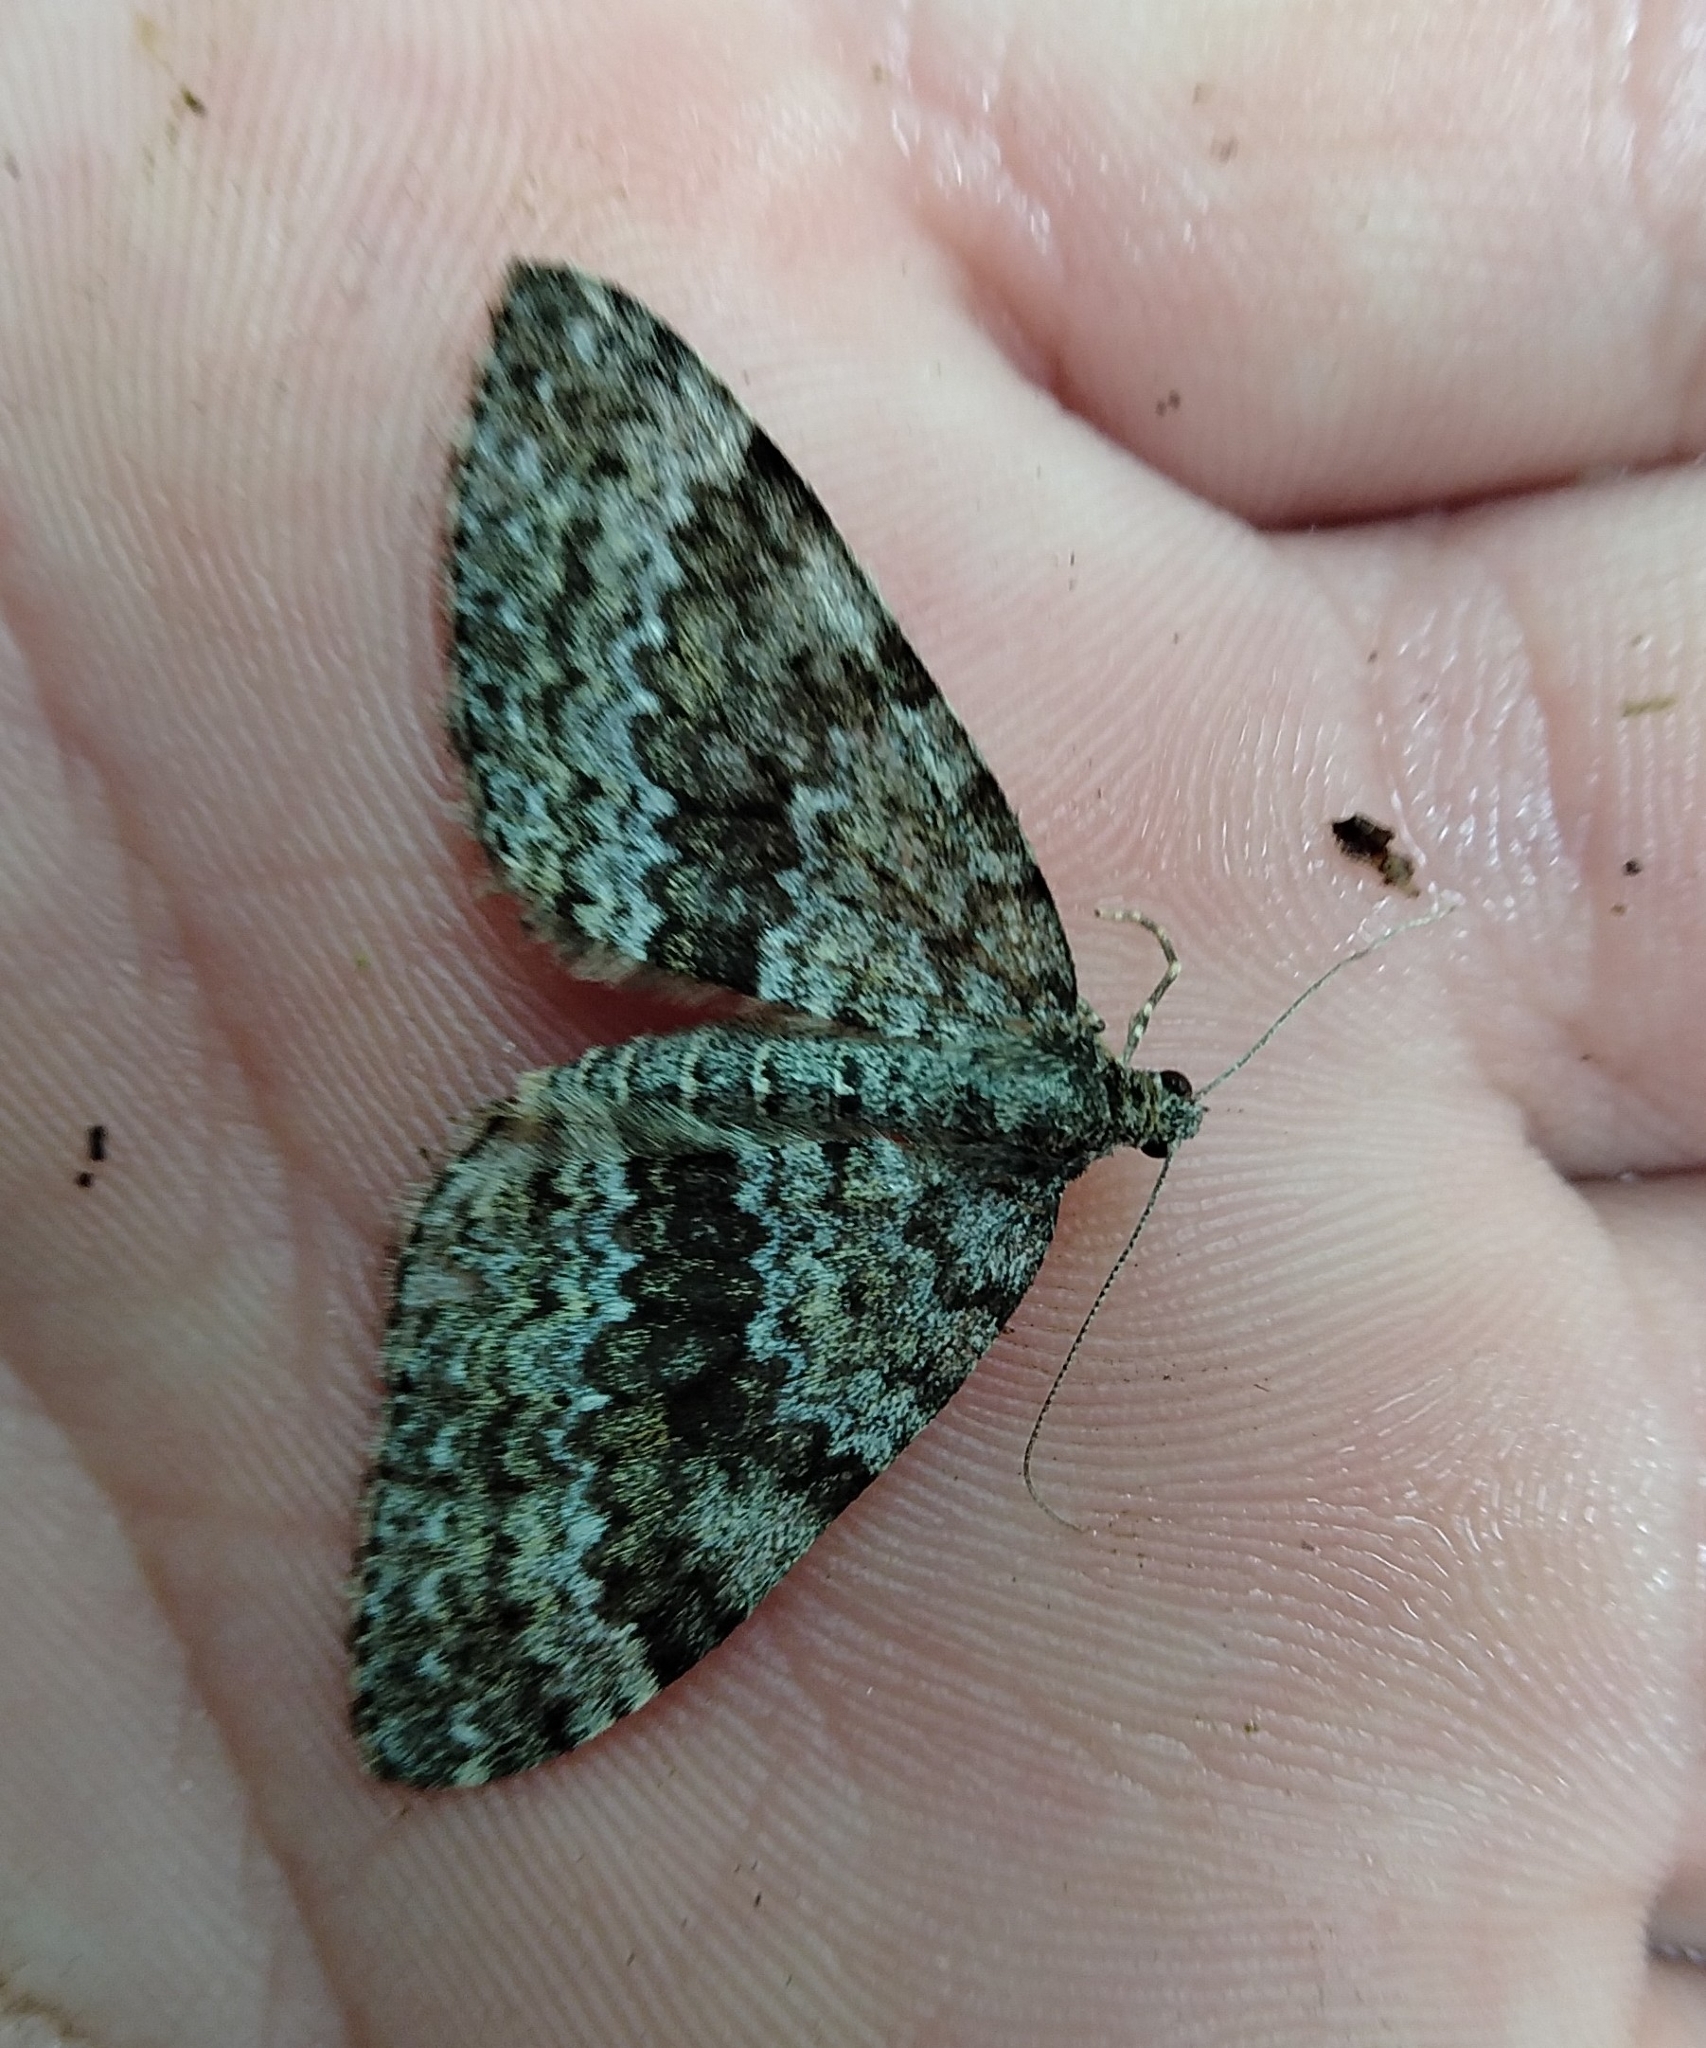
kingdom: Animalia
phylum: Arthropoda
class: Insecta
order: Lepidoptera
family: Geometridae
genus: Entephria
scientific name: Entephria caesiata
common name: Grey mountain moth
